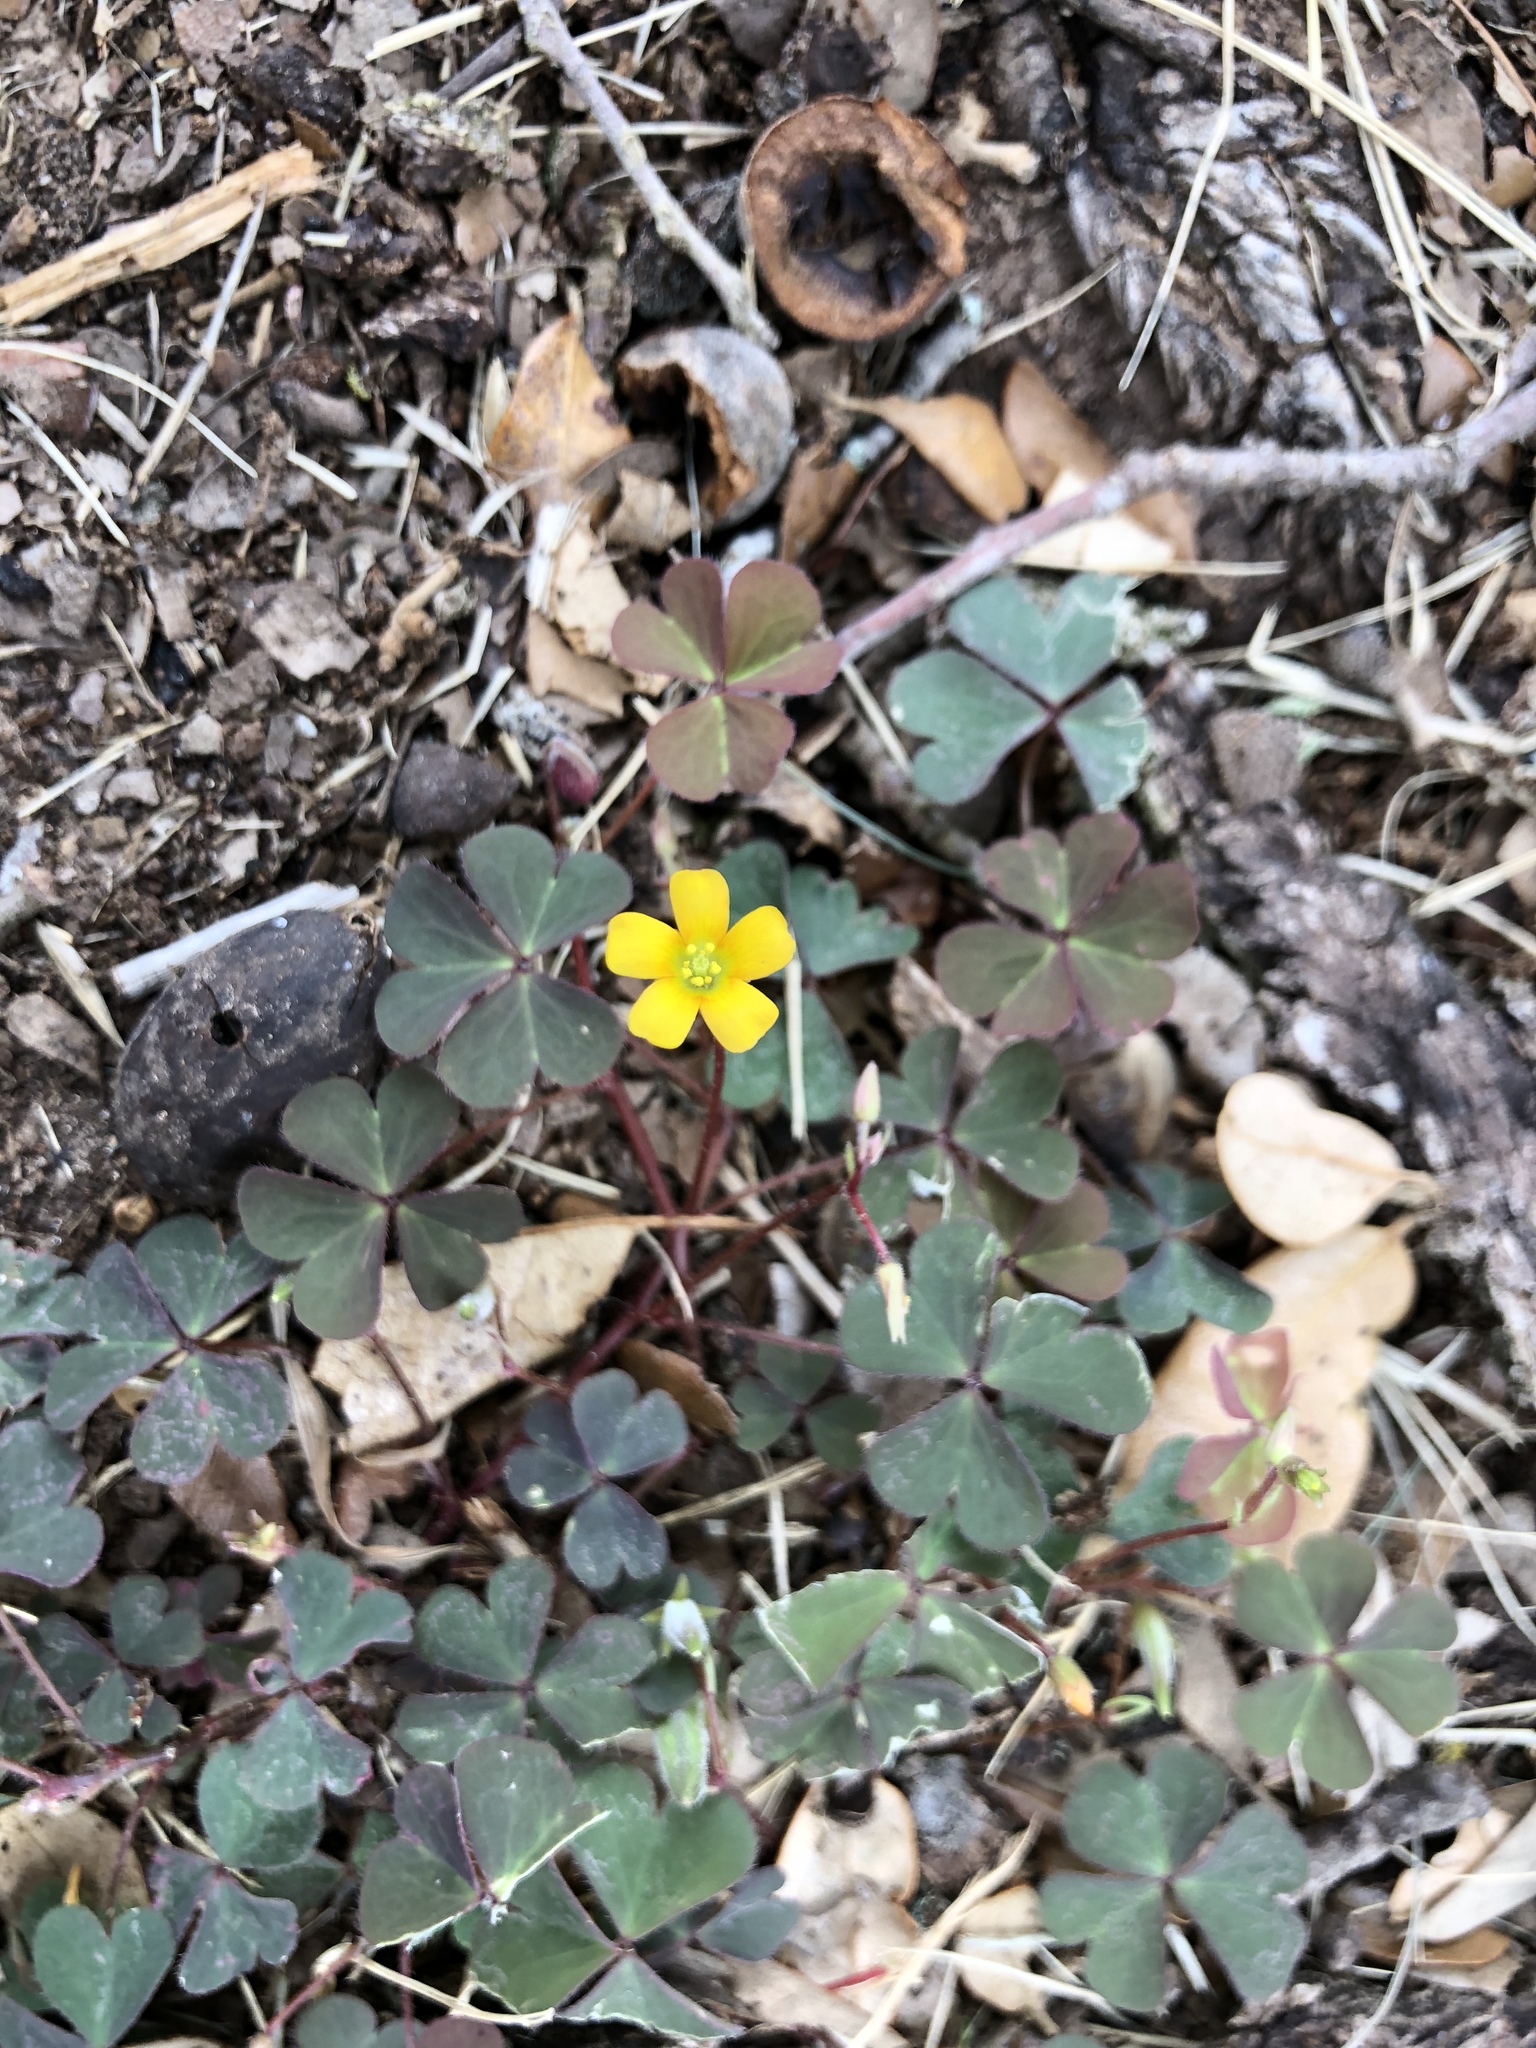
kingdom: Plantae
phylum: Tracheophyta
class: Magnoliopsida
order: Oxalidales
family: Oxalidaceae
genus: Oxalis
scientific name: Oxalis corniculata
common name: Procumbent yellow-sorrel
